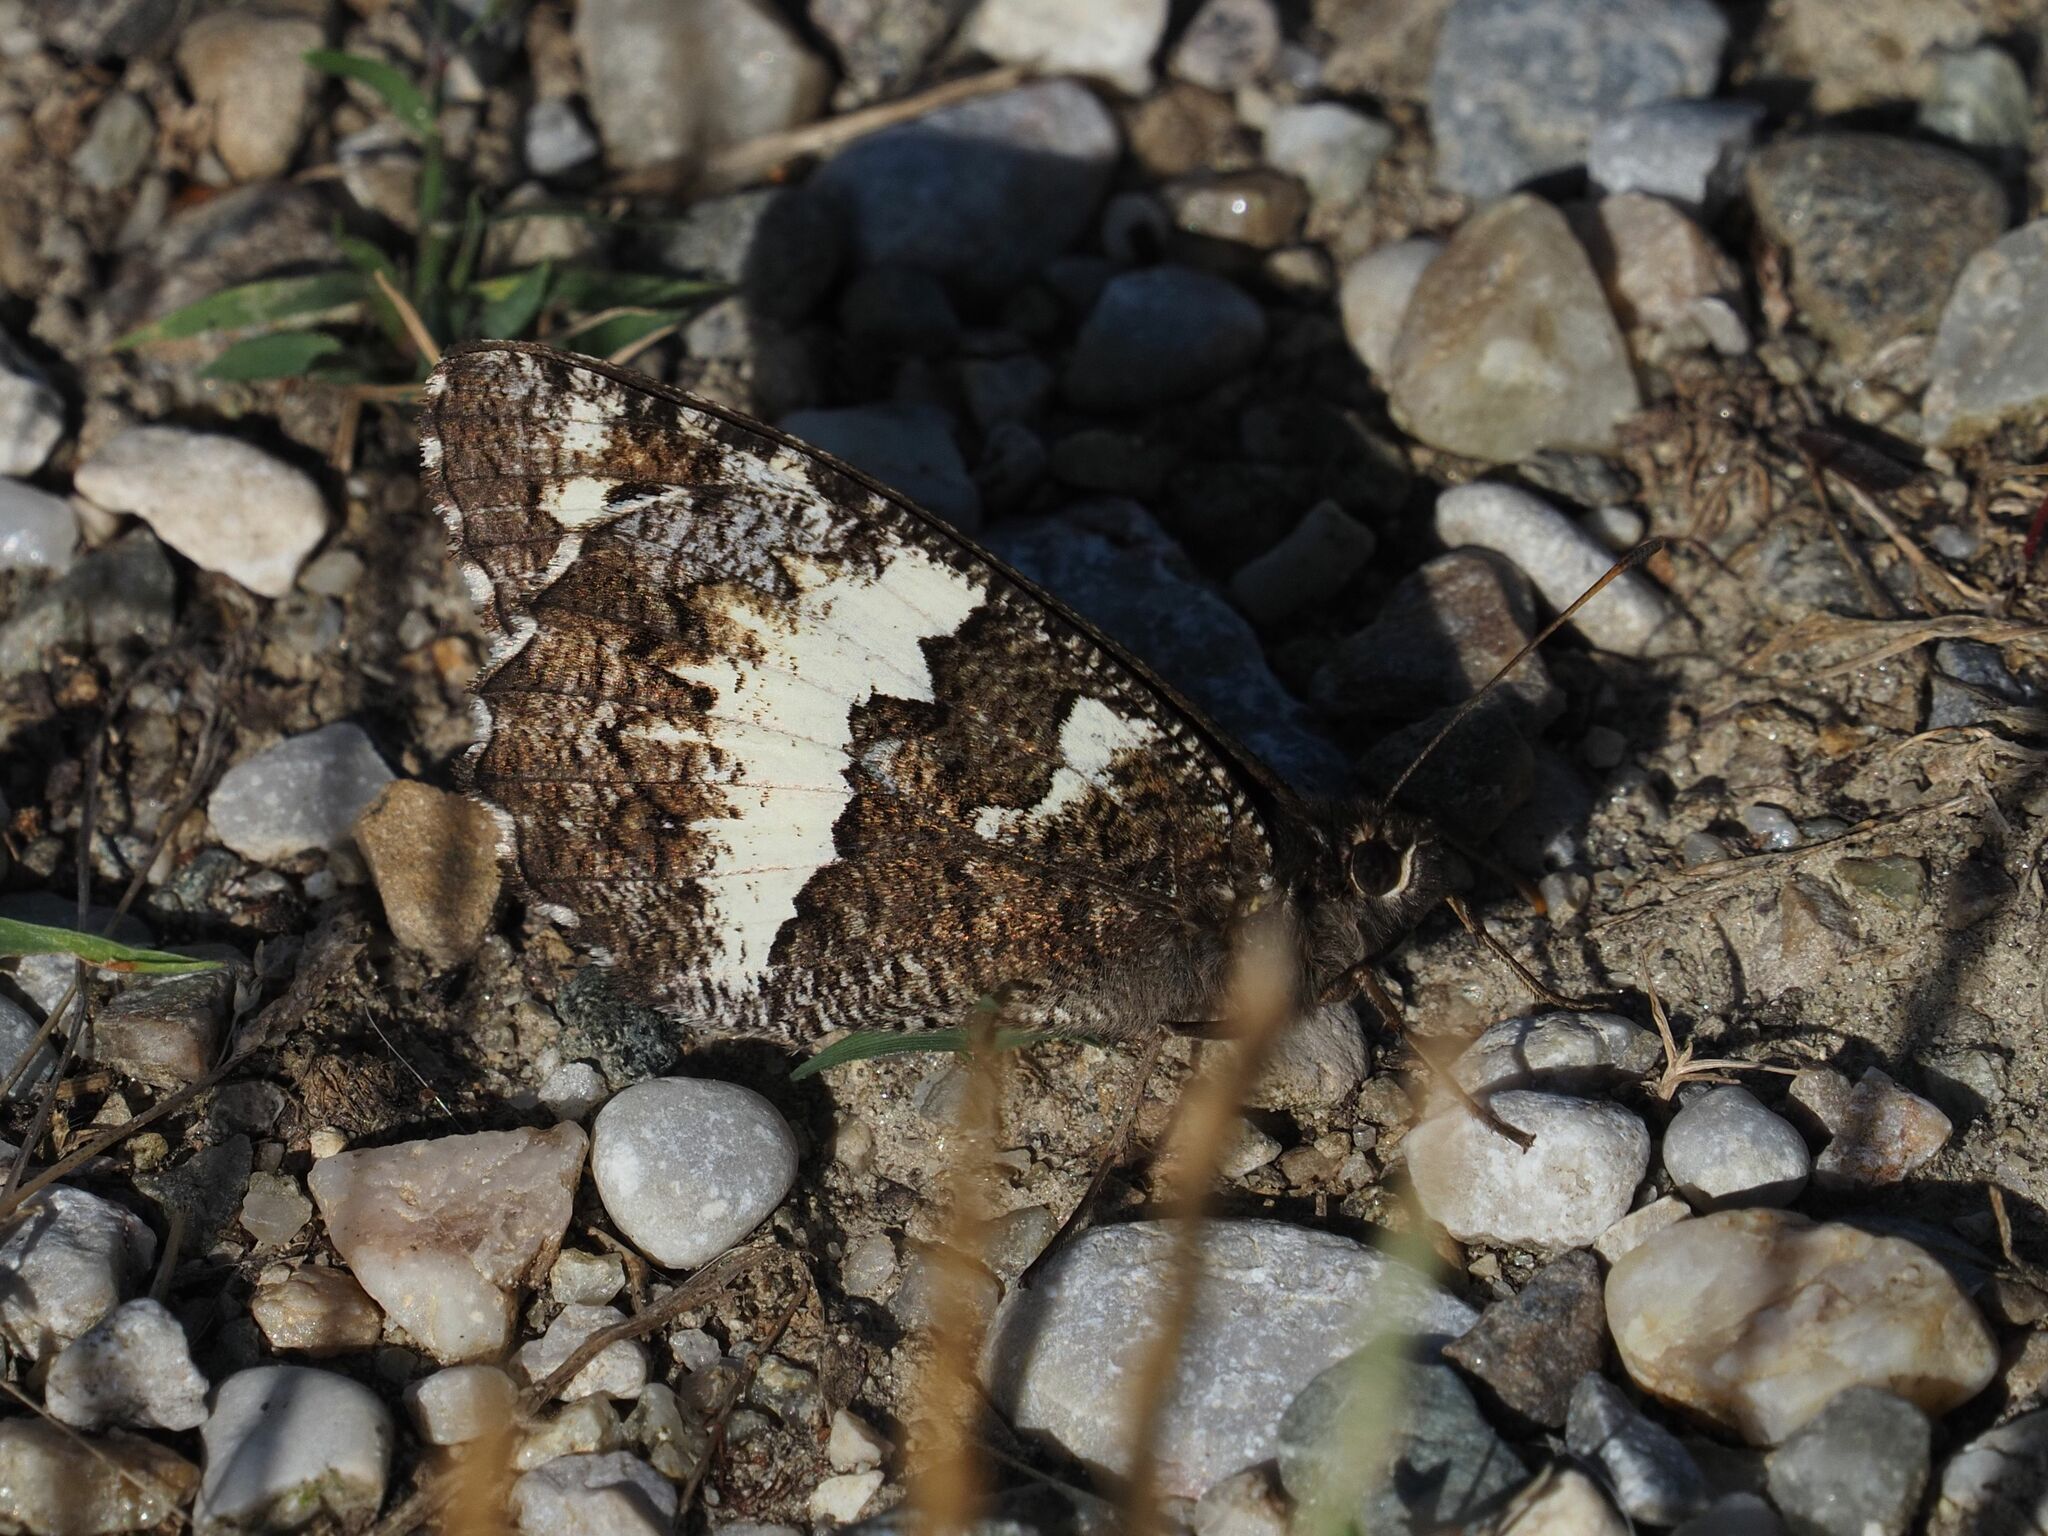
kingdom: Animalia
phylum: Arthropoda
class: Insecta
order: Lepidoptera
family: Lycaenidae
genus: Loweia
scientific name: Loweia tityrus
